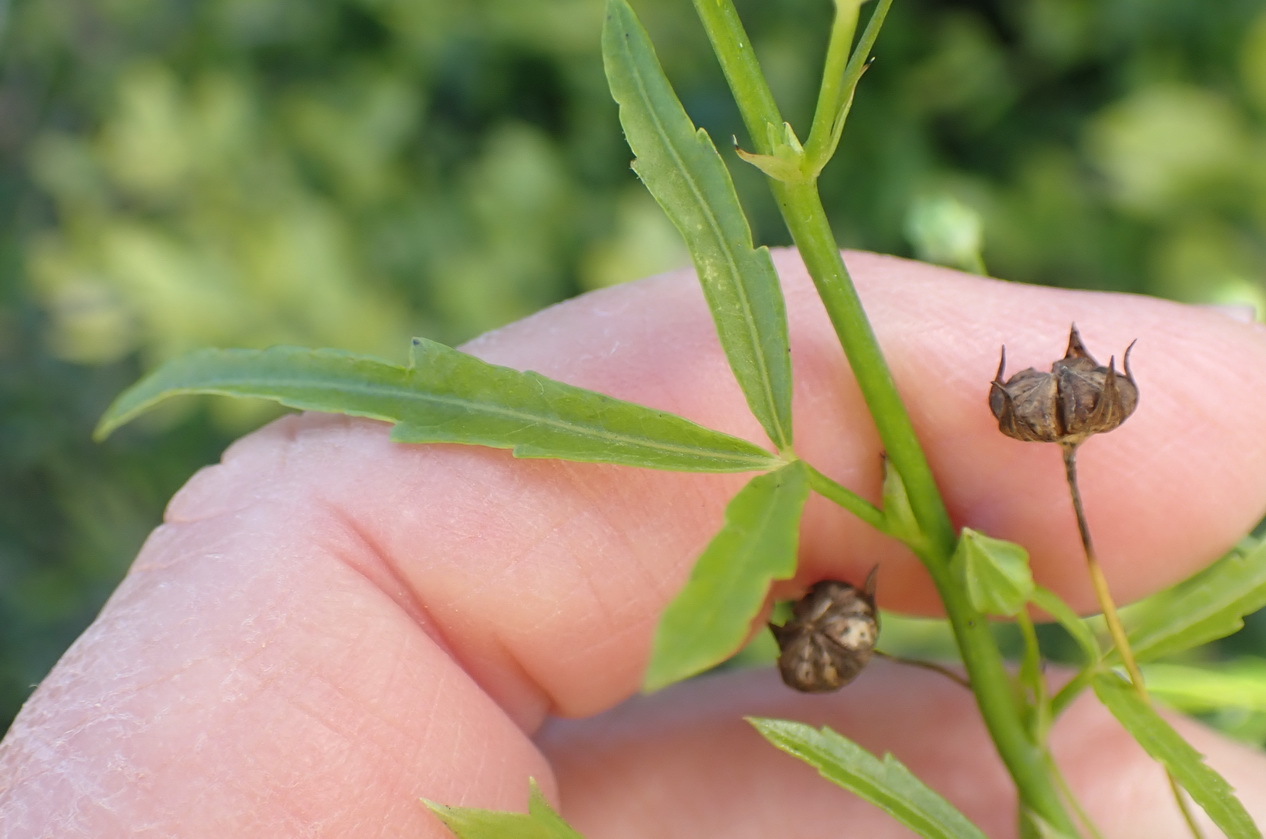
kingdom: Plantae
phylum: Tracheophyta
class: Magnoliopsida
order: Ranunculales
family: Ranunculaceae
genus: Clematis
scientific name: Clematis brachiata
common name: Traveler's-joy
